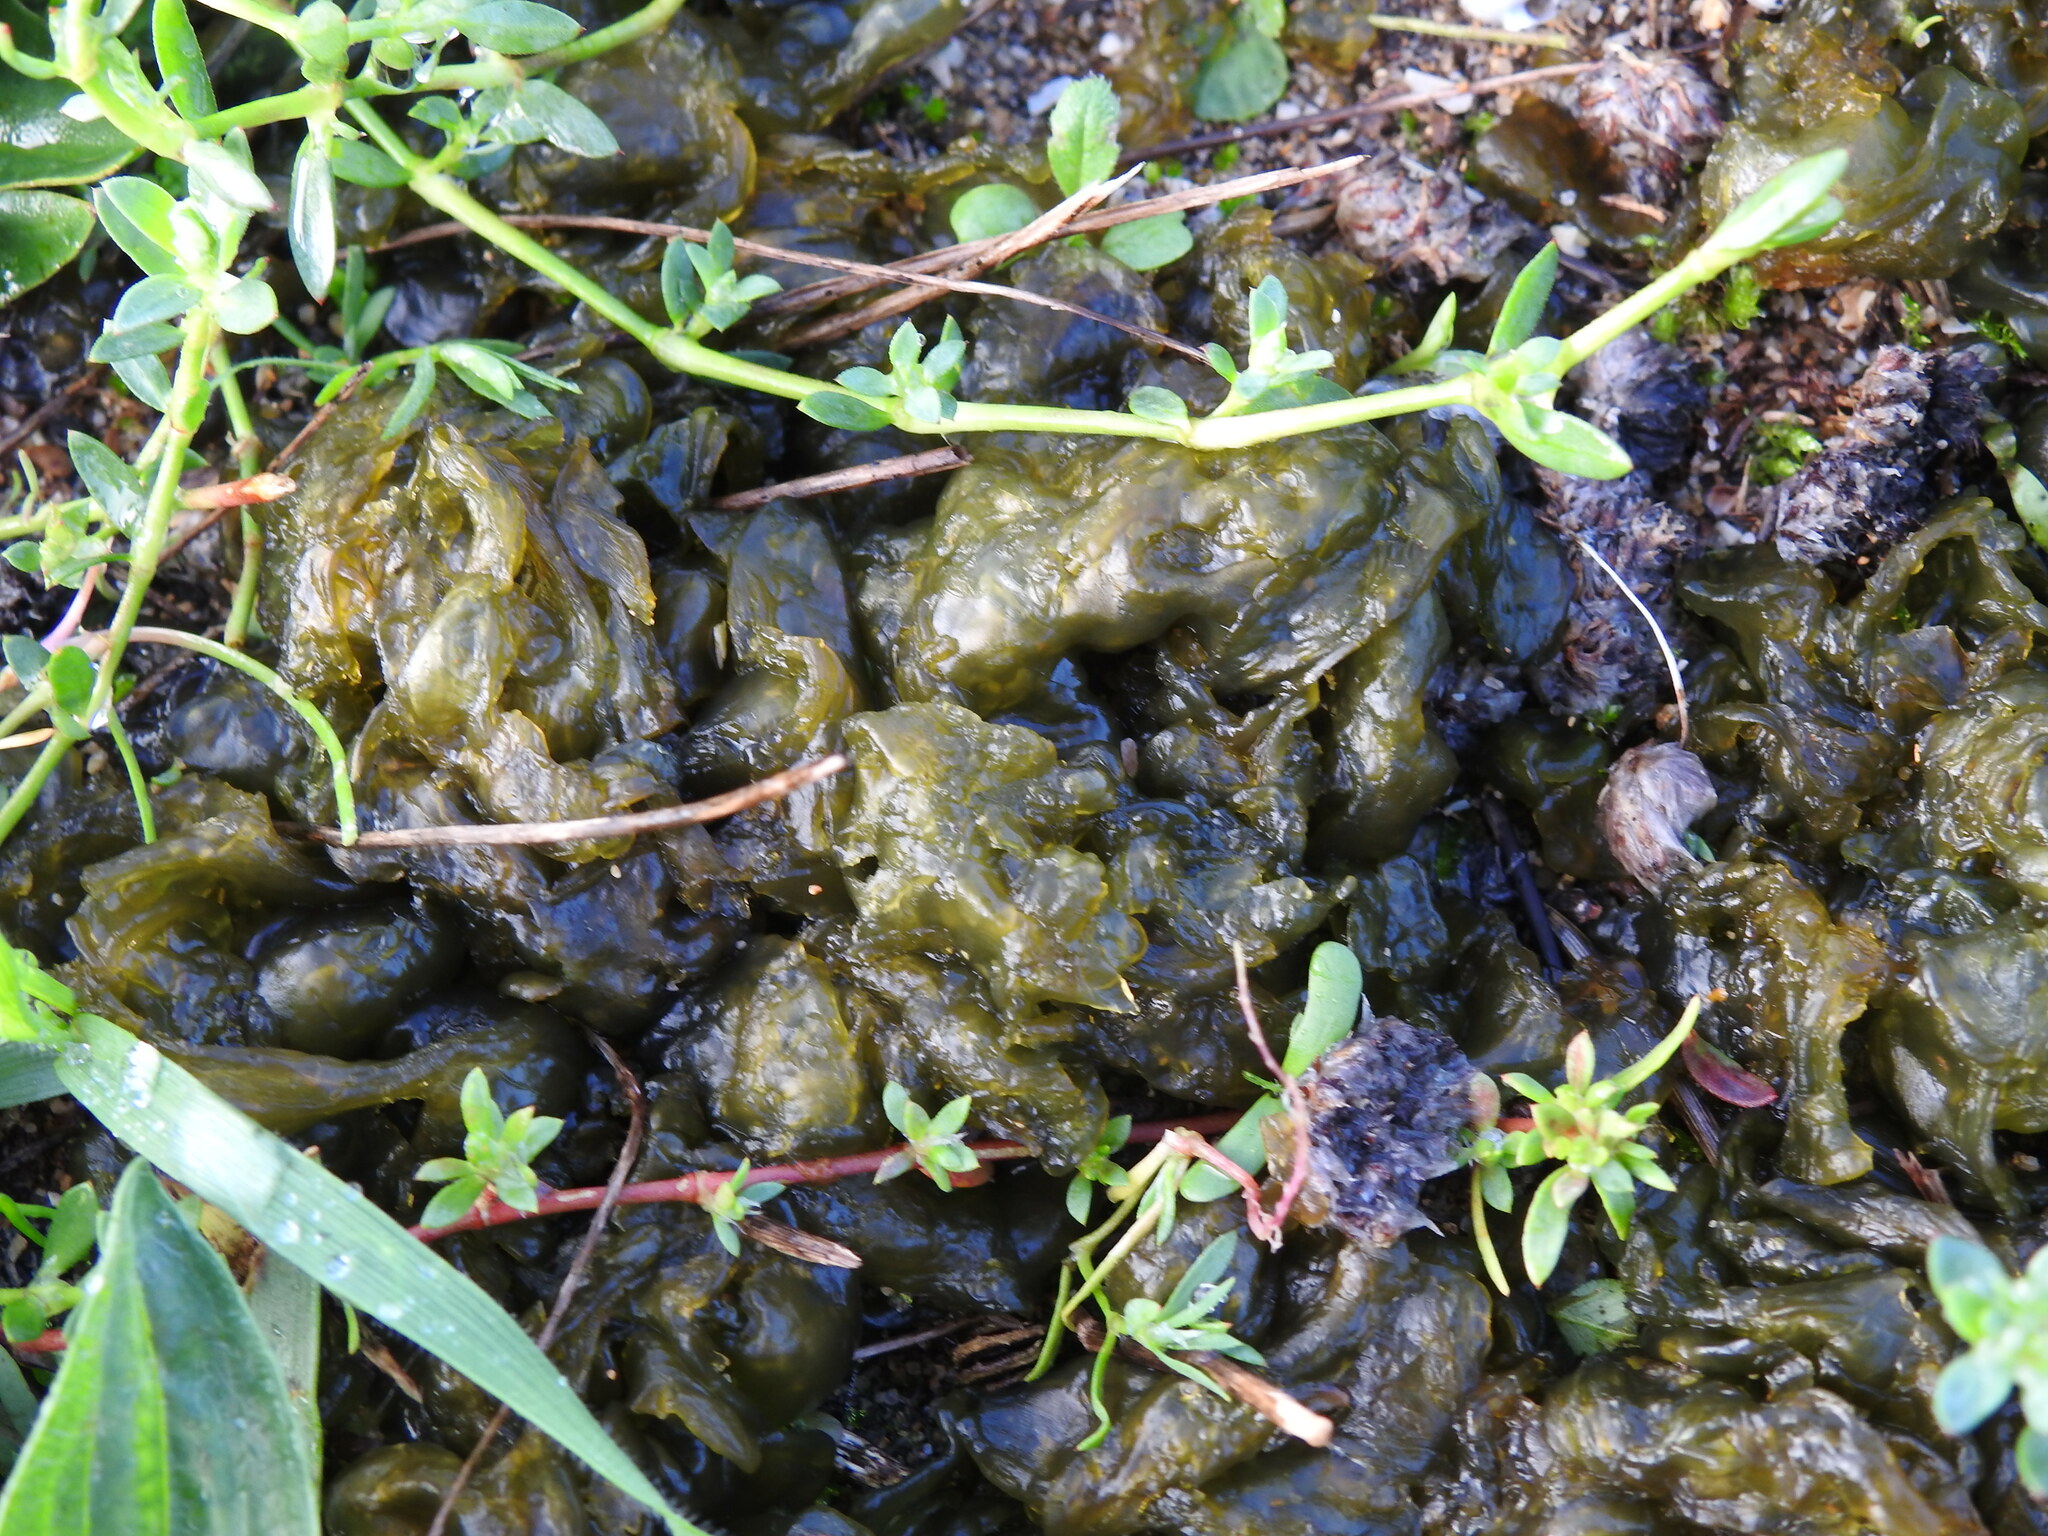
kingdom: Bacteria
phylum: Cyanobacteria
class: Cyanobacteriia
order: Cyanobacteriales
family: Nostocaceae
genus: Nostoc
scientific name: Nostoc commune
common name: Star jelly
